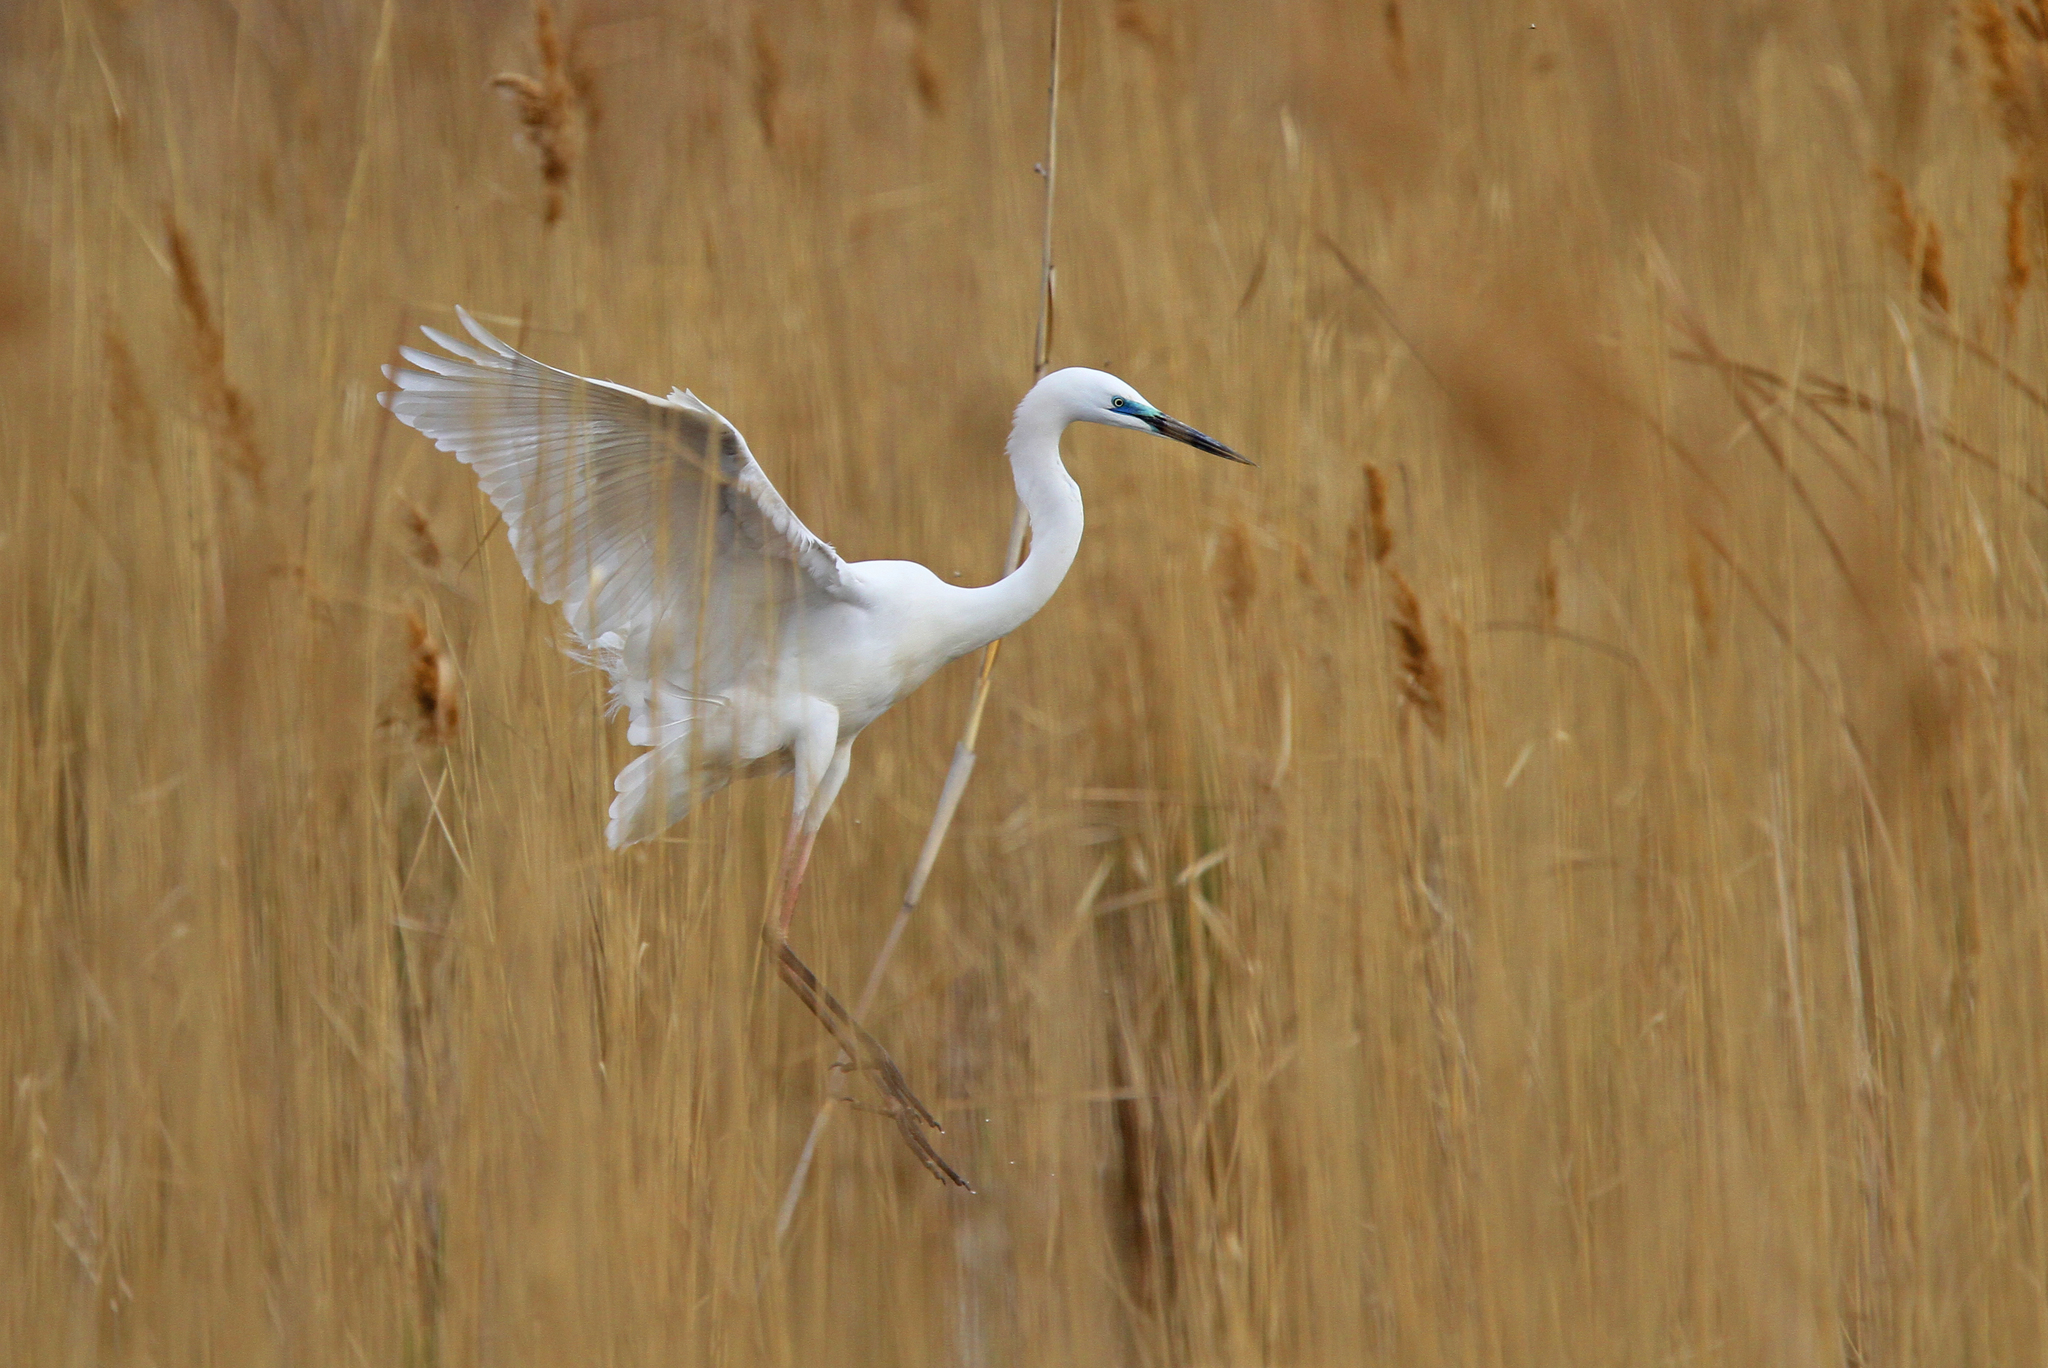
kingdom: Animalia
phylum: Chordata
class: Aves
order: Pelecaniformes
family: Ardeidae
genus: Ardea
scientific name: Ardea alba
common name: Great egret
